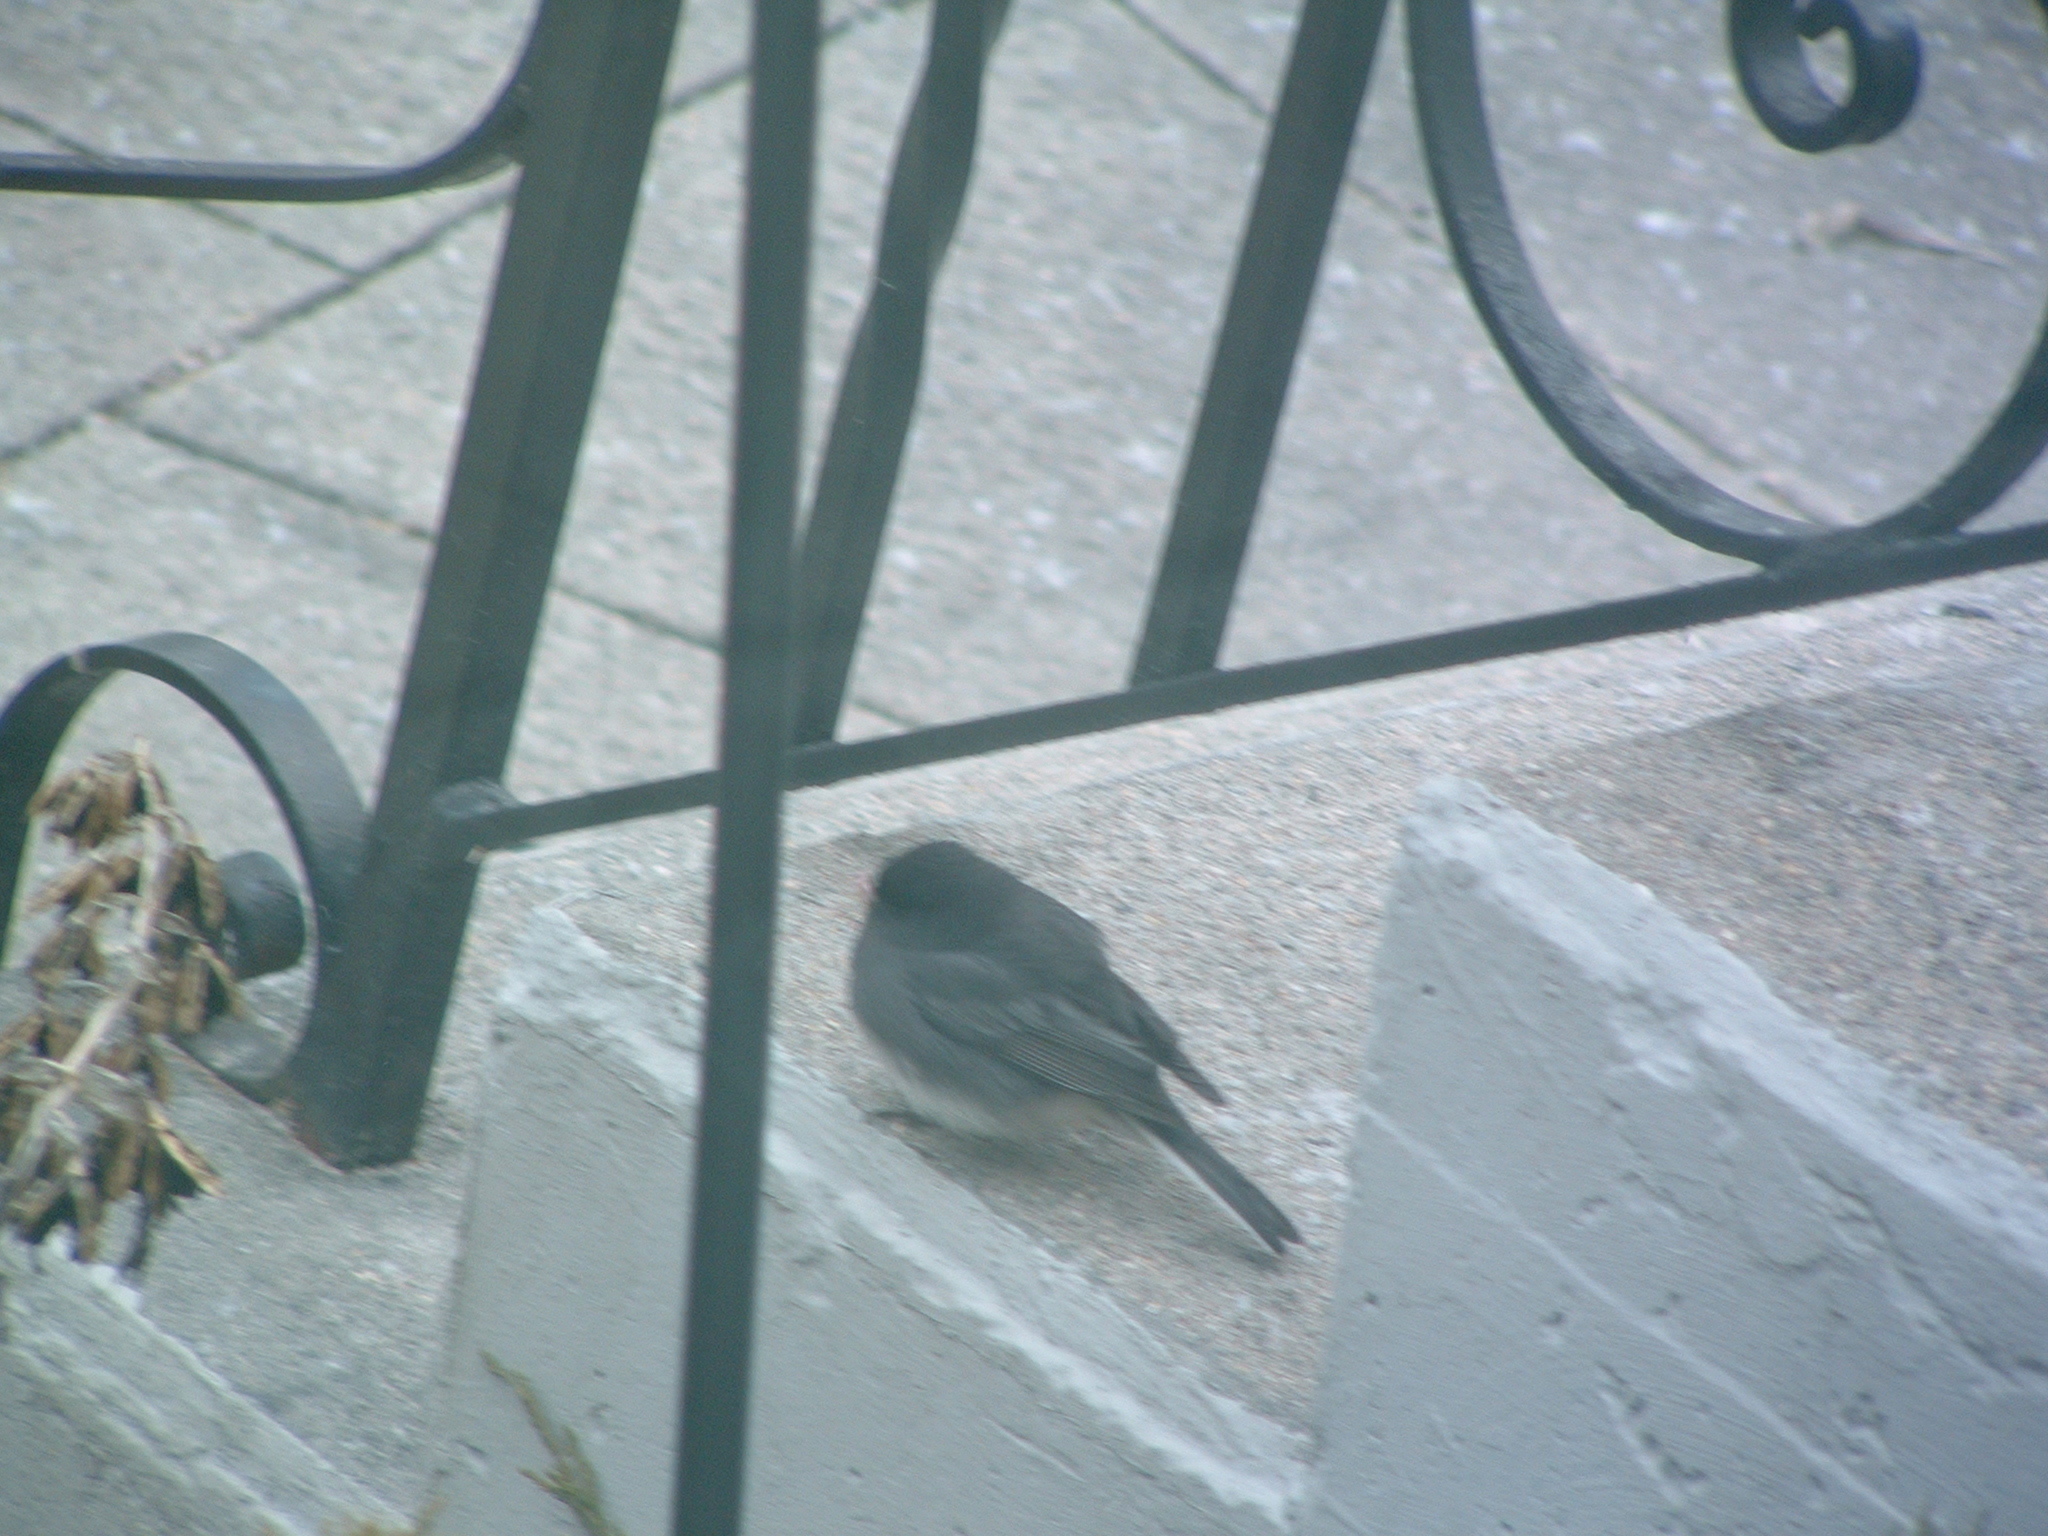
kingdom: Animalia
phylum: Chordata
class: Aves
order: Passeriformes
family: Passerellidae
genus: Junco
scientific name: Junco hyemalis
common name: Dark-eyed junco
